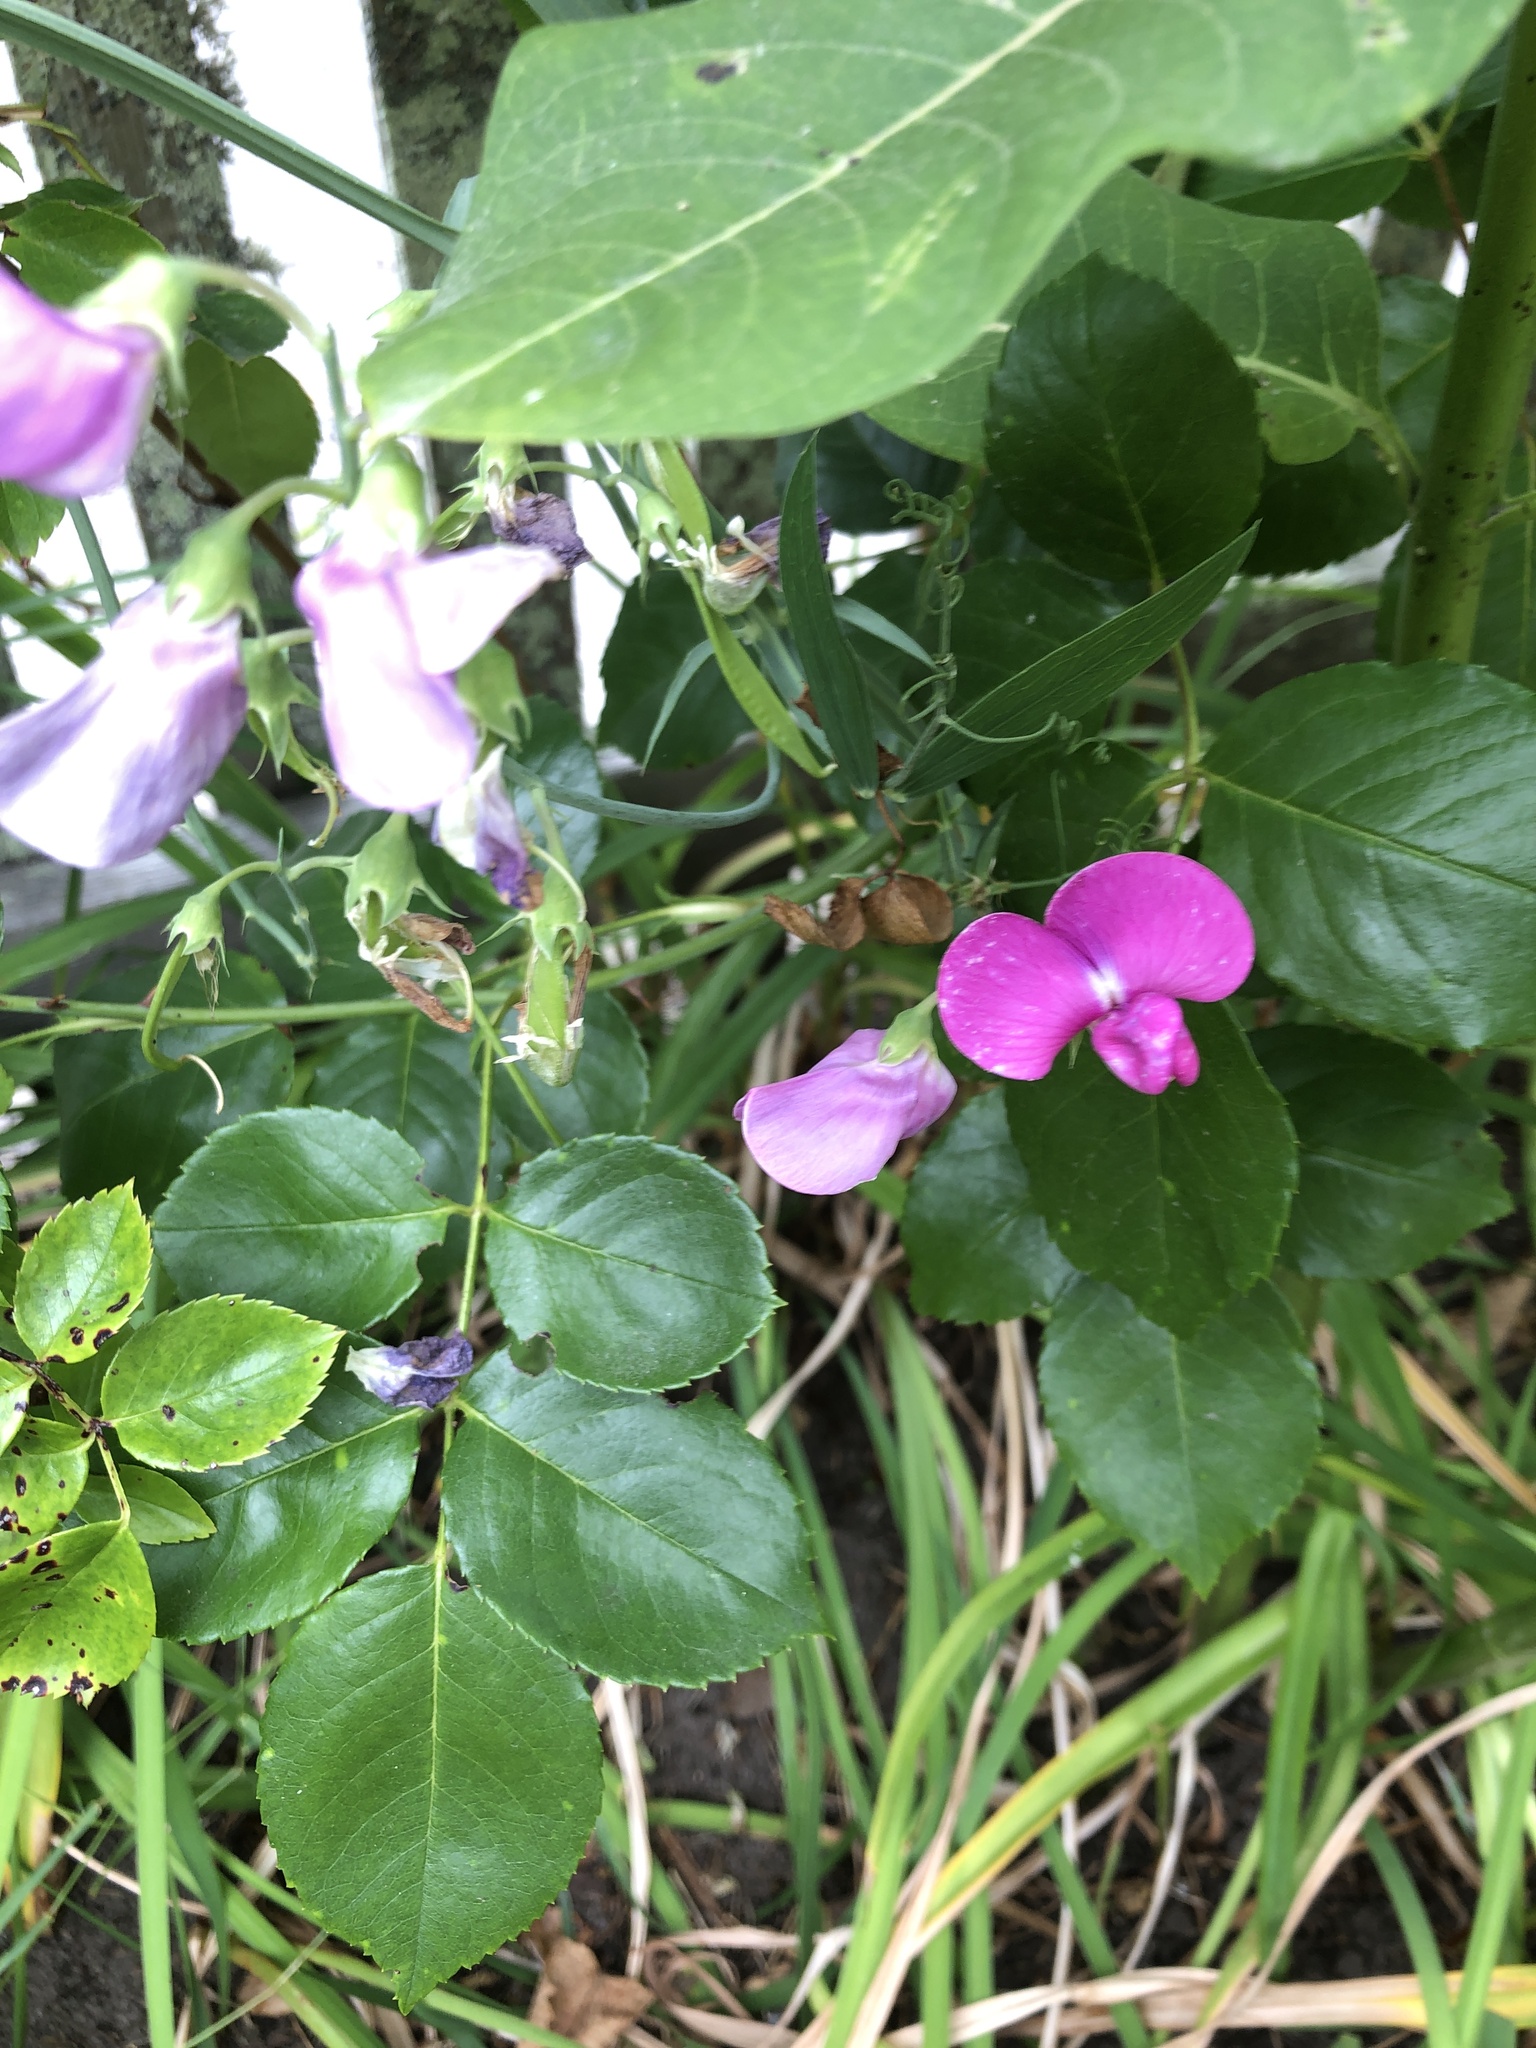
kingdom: Plantae
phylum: Tracheophyta
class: Magnoliopsida
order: Fabales
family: Fabaceae
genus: Lathyrus
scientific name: Lathyrus latifolius
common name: Perennial pea
